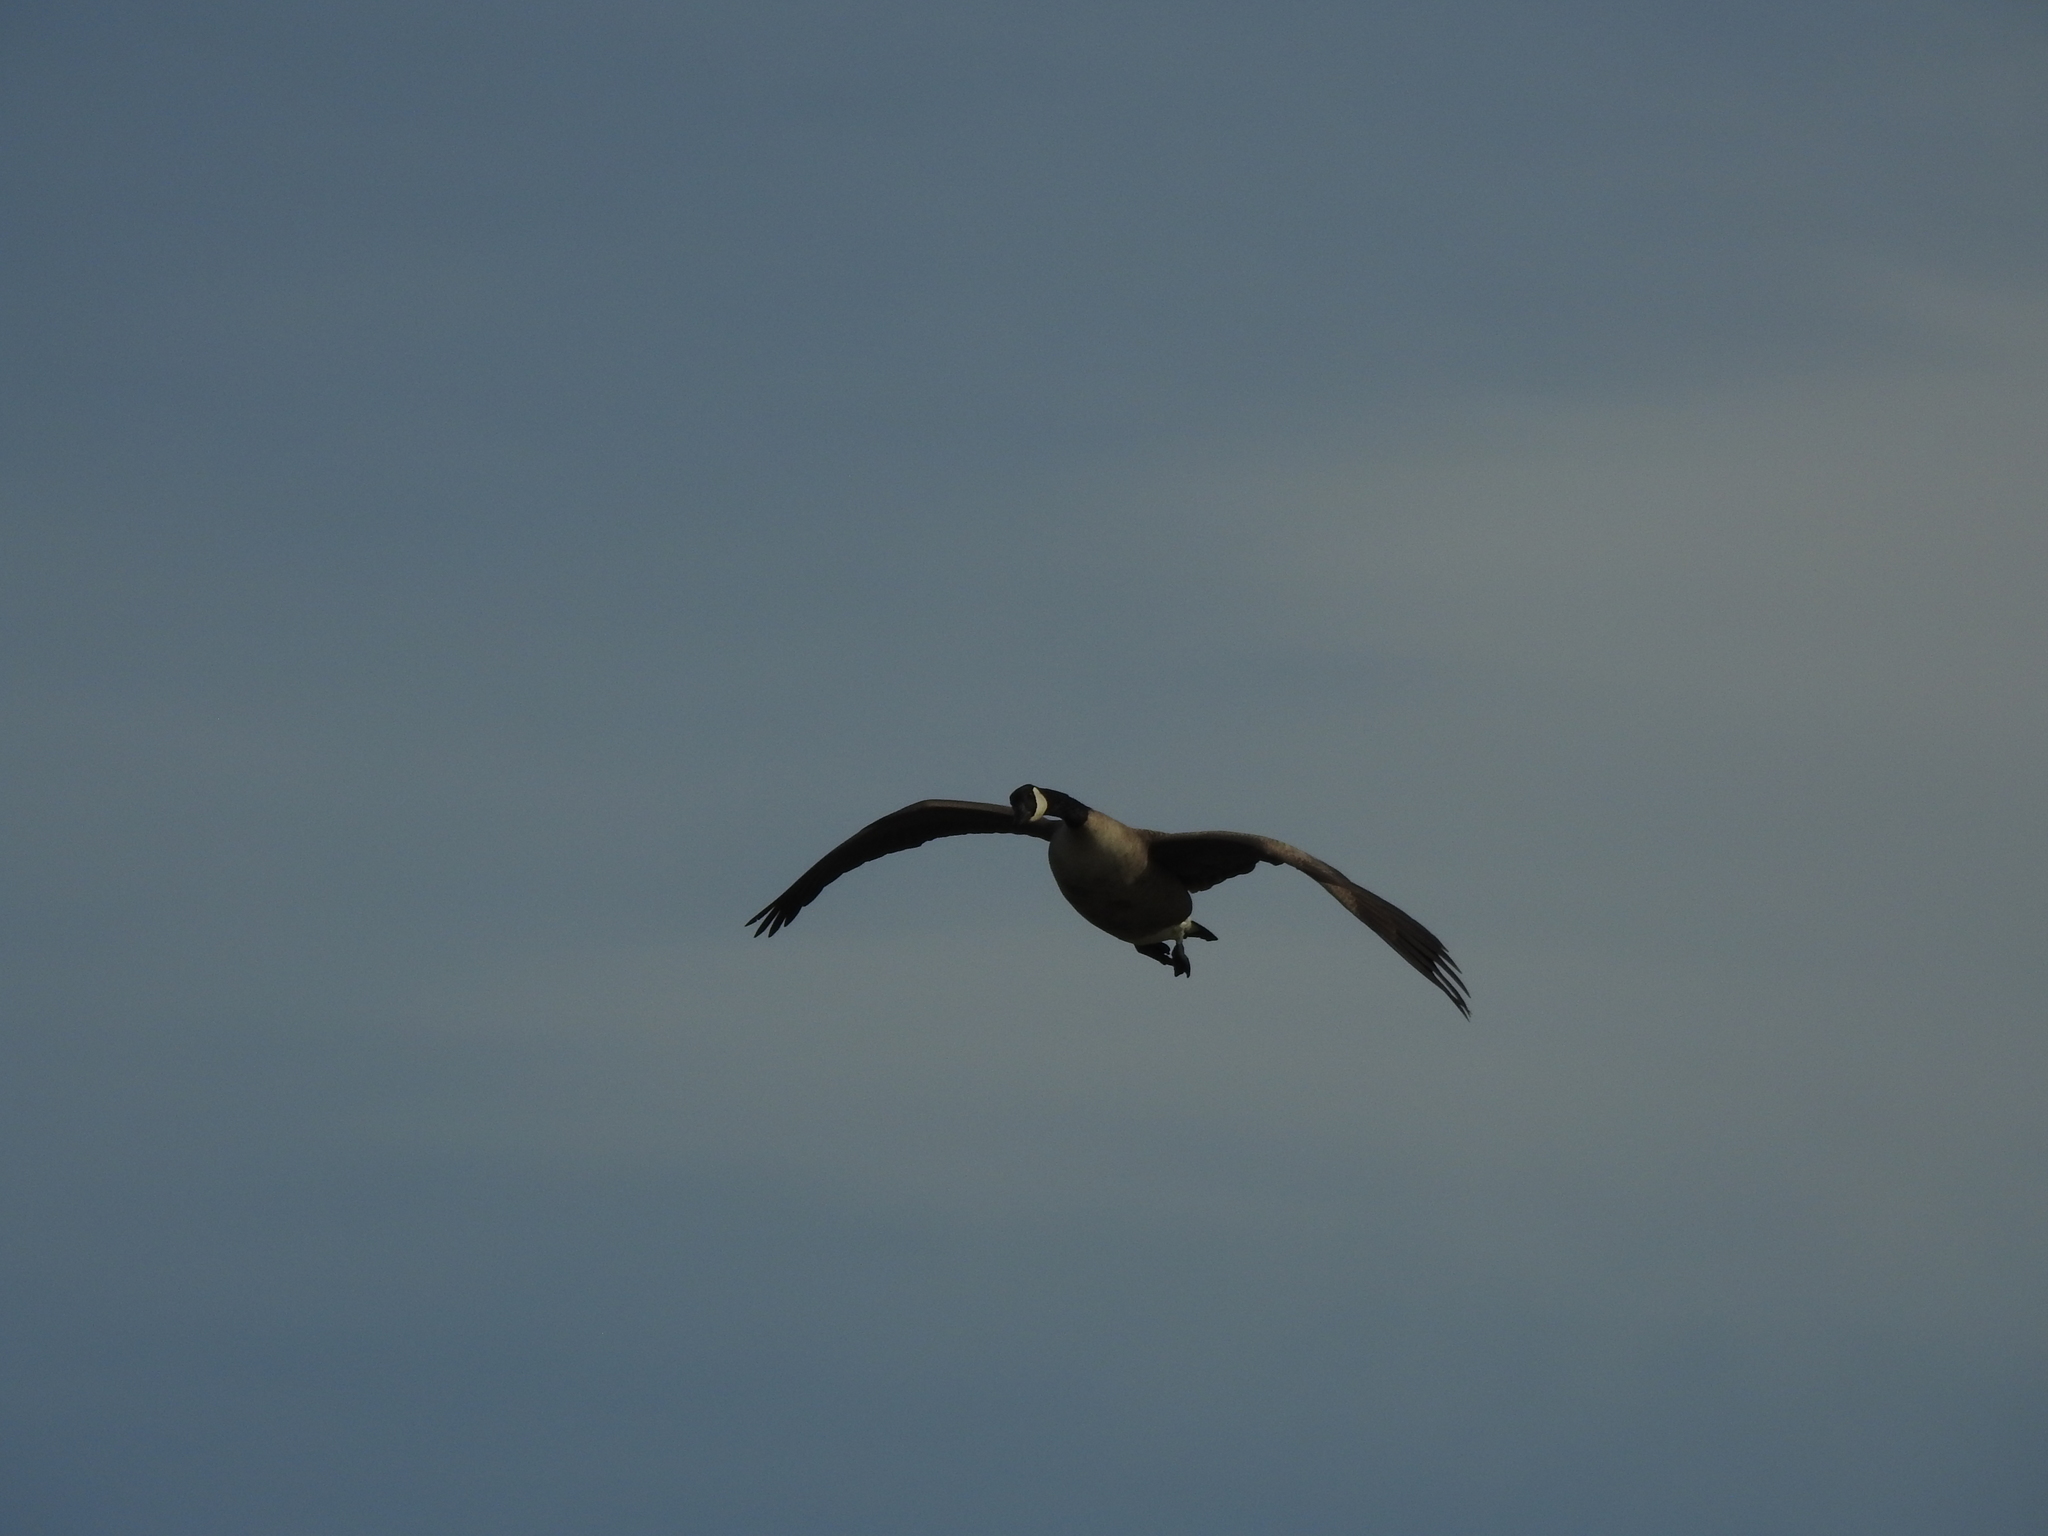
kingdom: Animalia
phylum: Chordata
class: Aves
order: Anseriformes
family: Anatidae
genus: Branta
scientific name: Branta canadensis
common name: Canada goose
